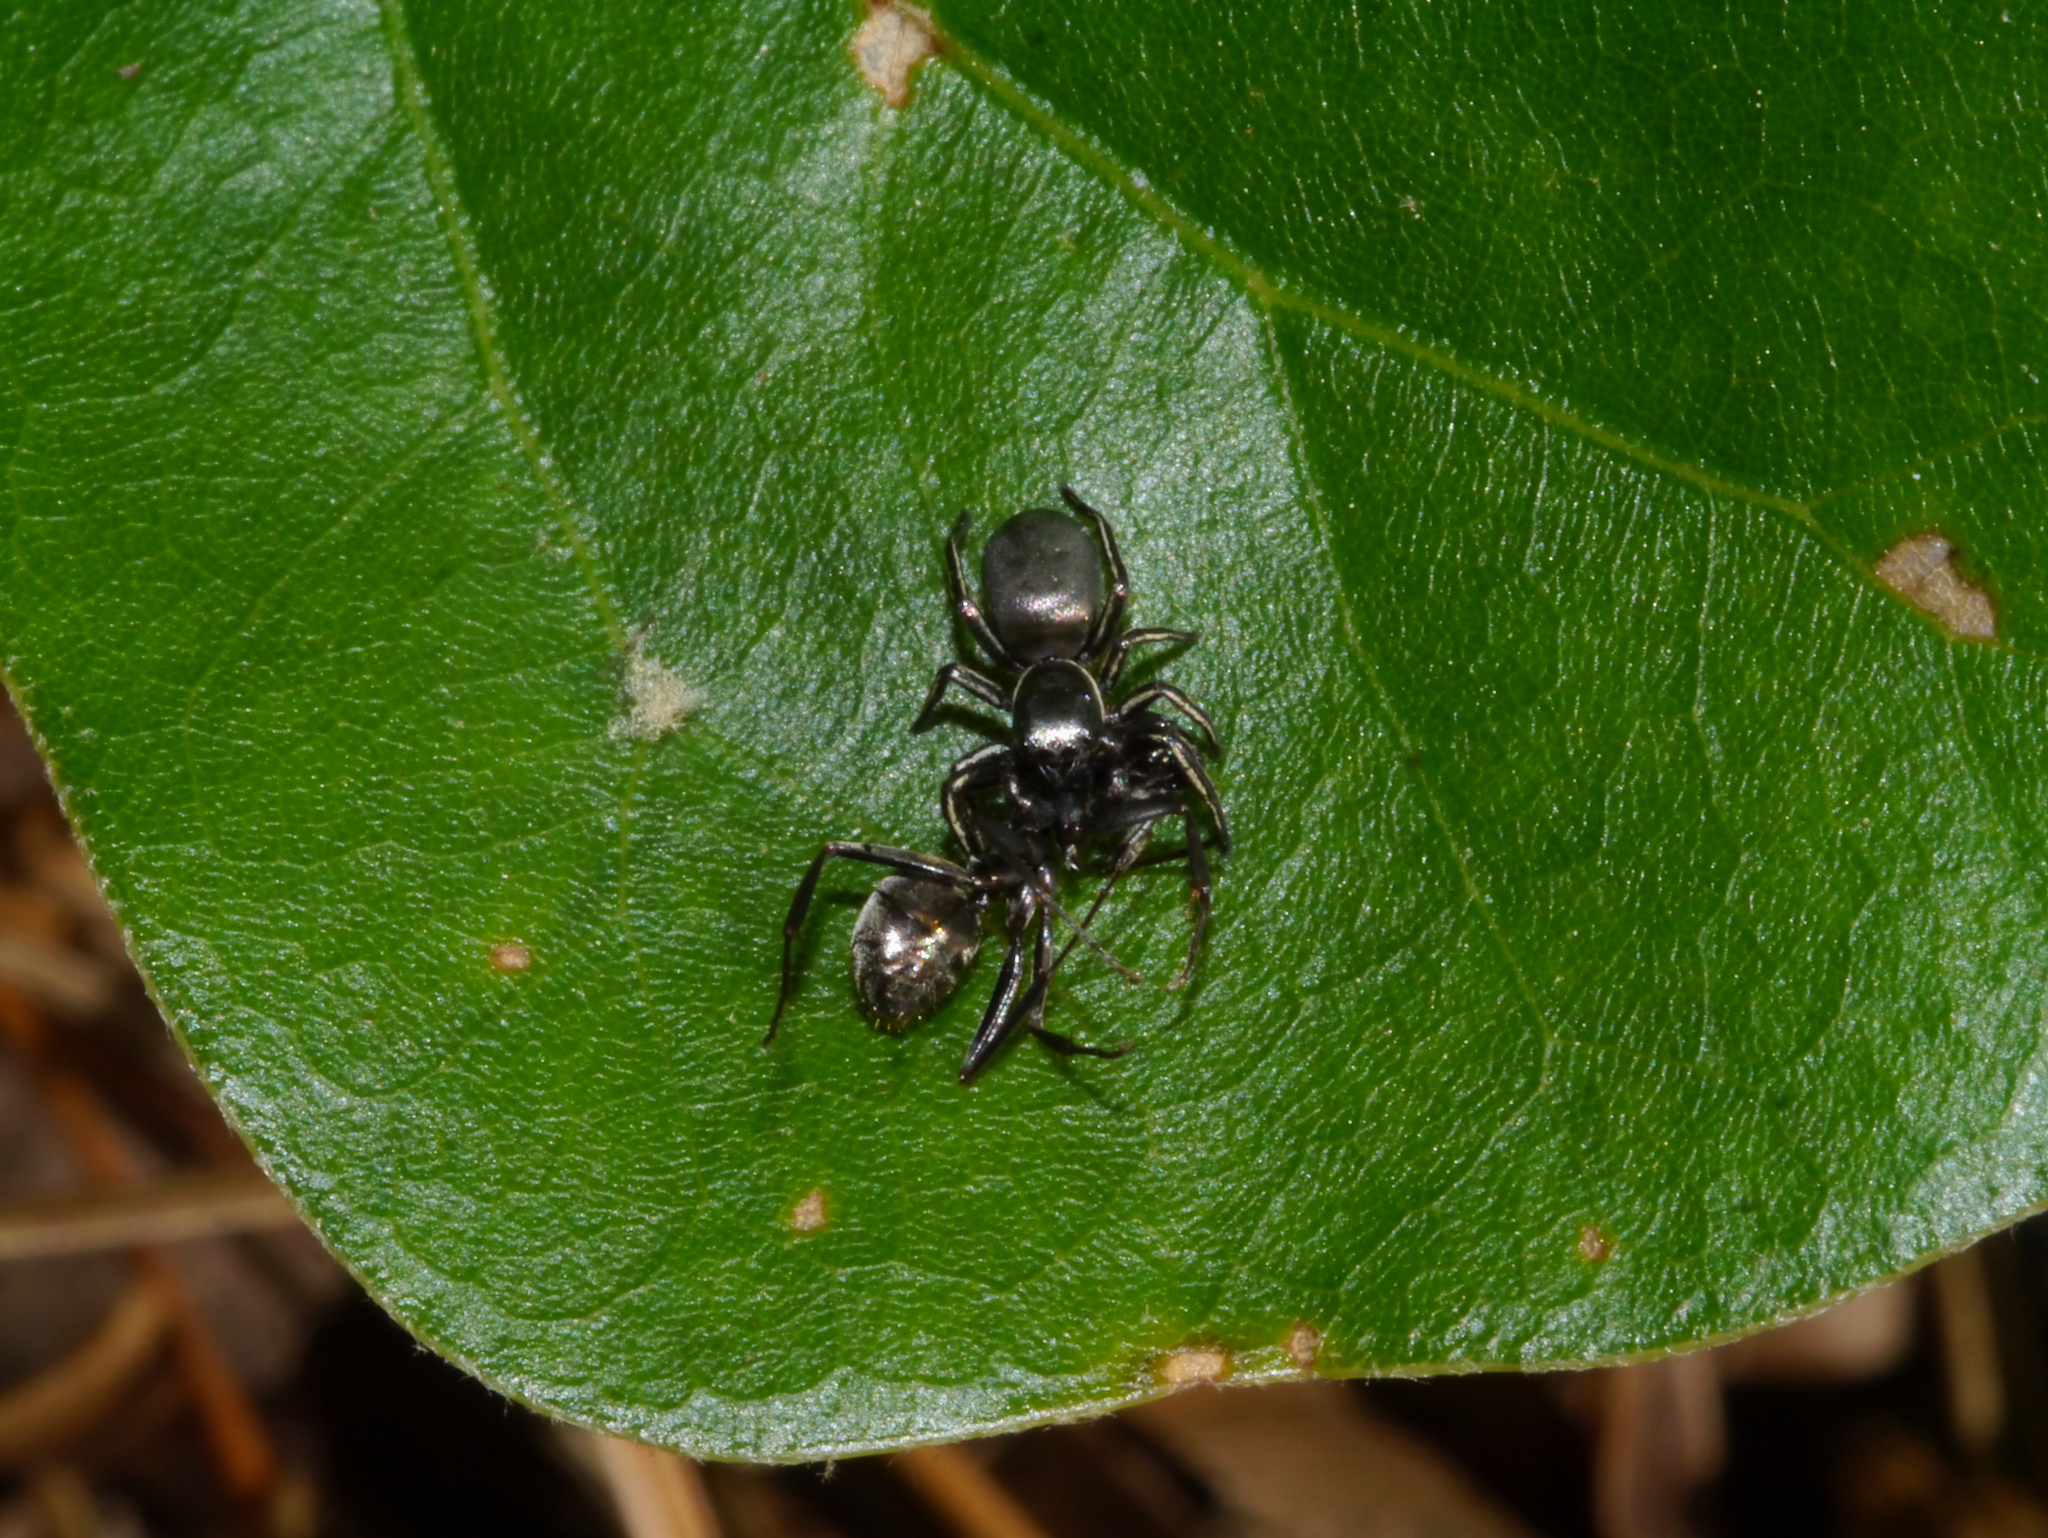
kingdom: Animalia
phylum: Arthropoda
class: Arachnida
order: Araneae
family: Salticidae
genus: Tutelina
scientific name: Tutelina formicaria
